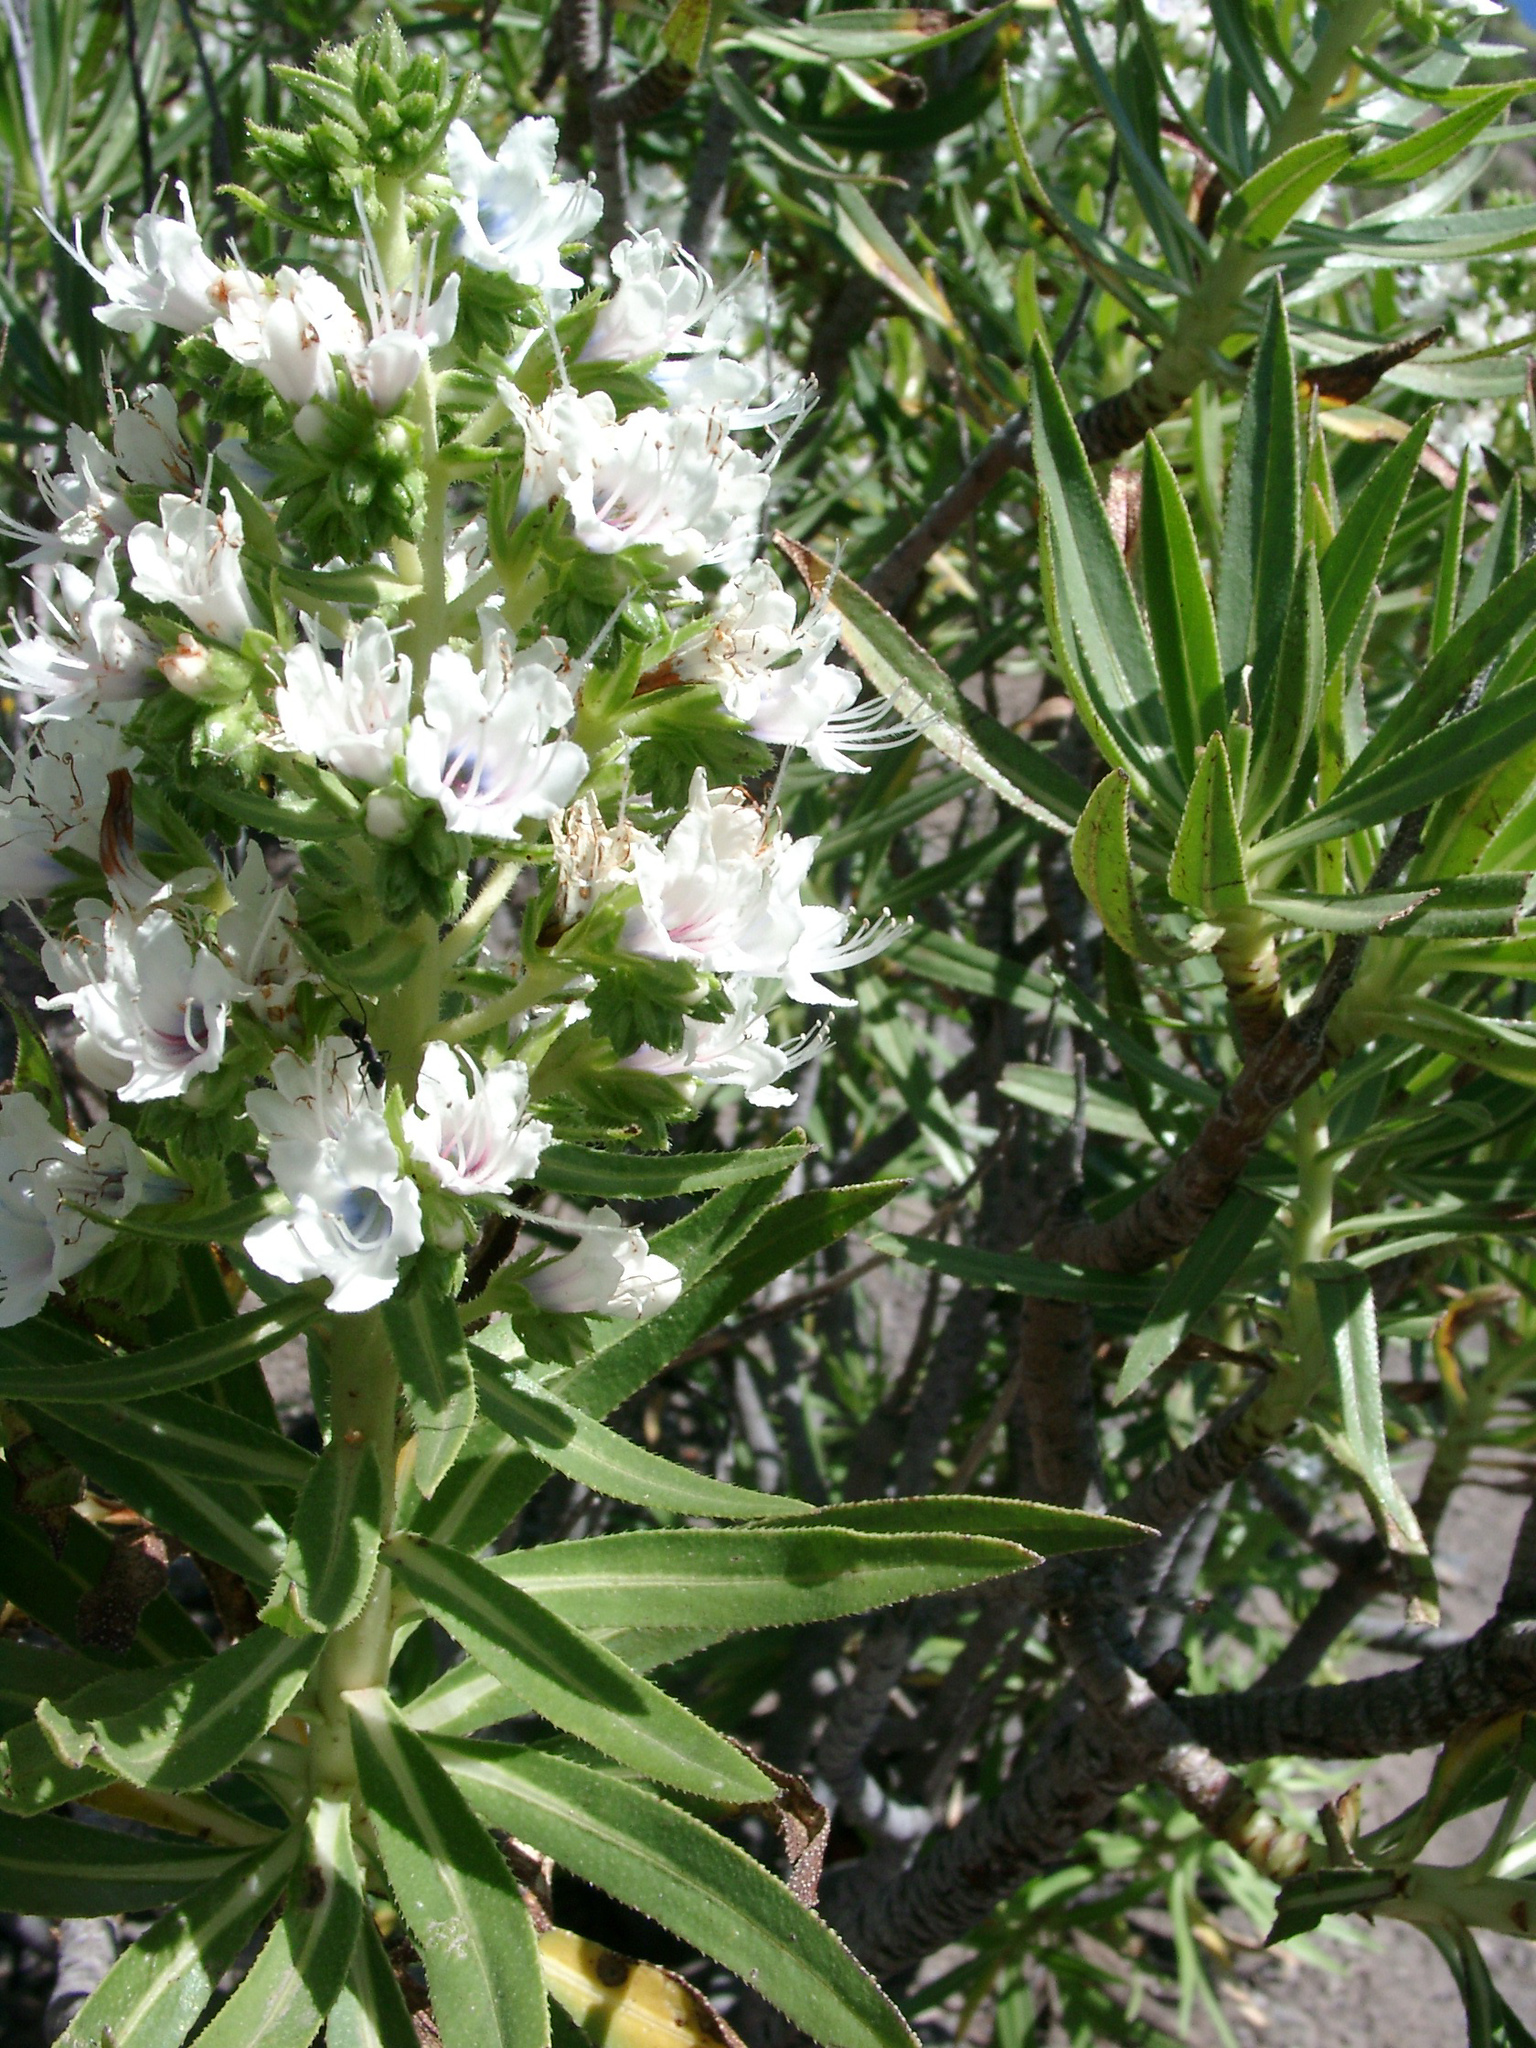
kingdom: Plantae
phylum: Tracheophyta
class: Magnoliopsida
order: Boraginales
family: Boraginaceae
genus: Echium
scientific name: Echium decaisnei
